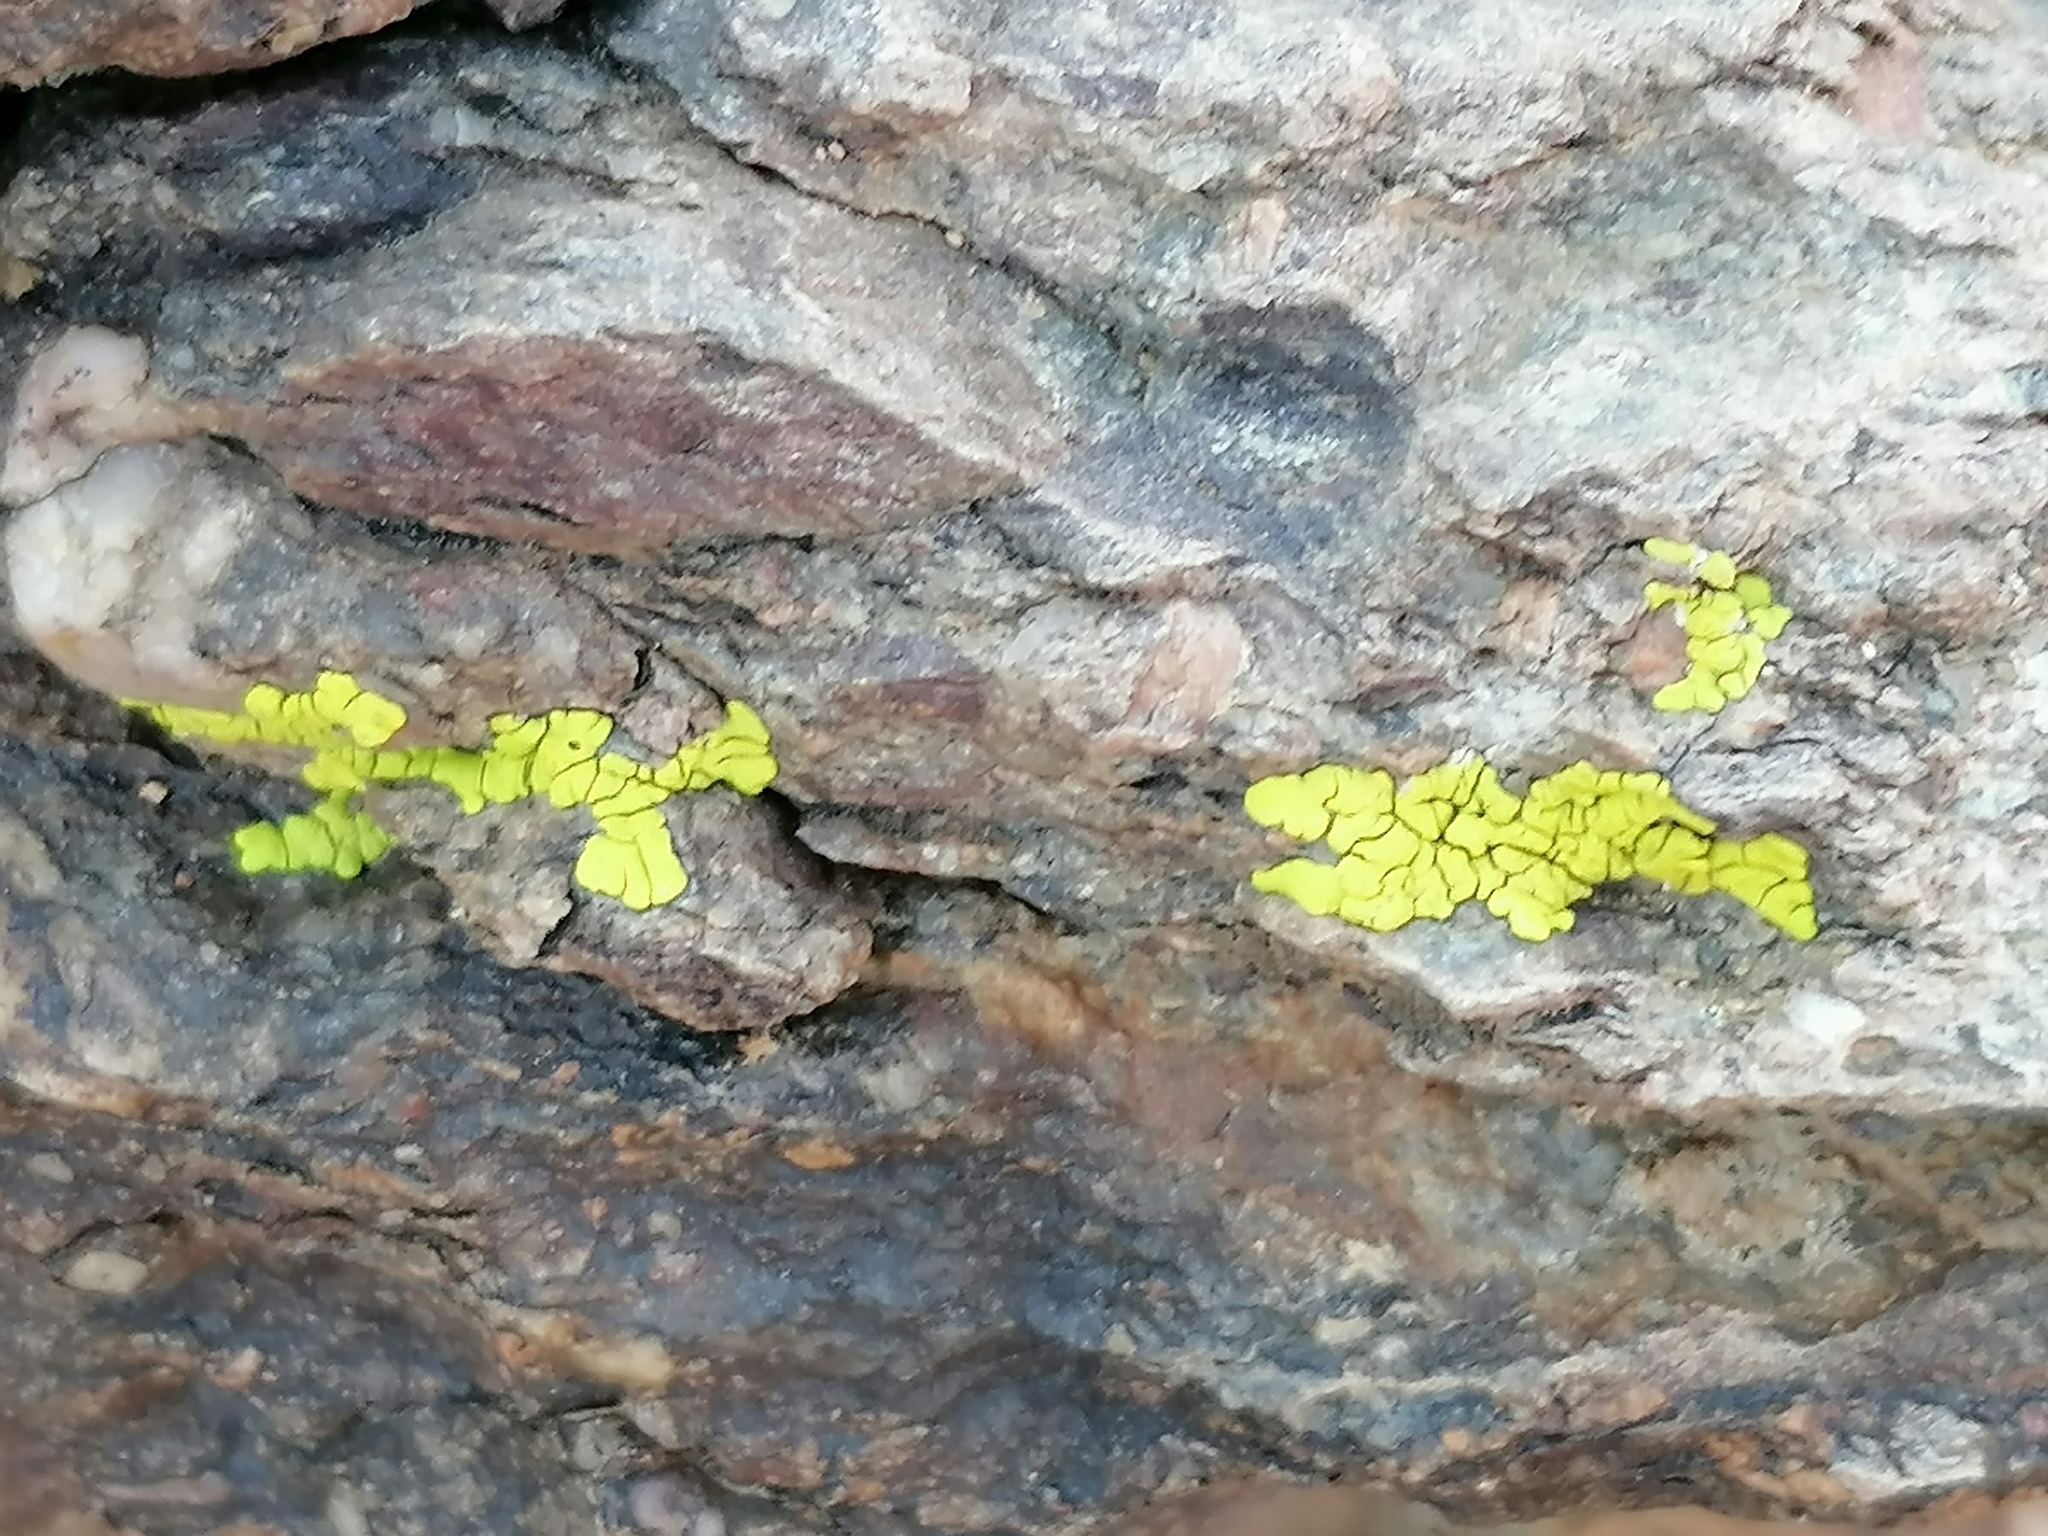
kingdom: Fungi
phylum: Ascomycota
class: Lecanoromycetes
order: Acarosporales
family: Acarosporaceae
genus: Pleopsidium
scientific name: Pleopsidium chlorophanum
